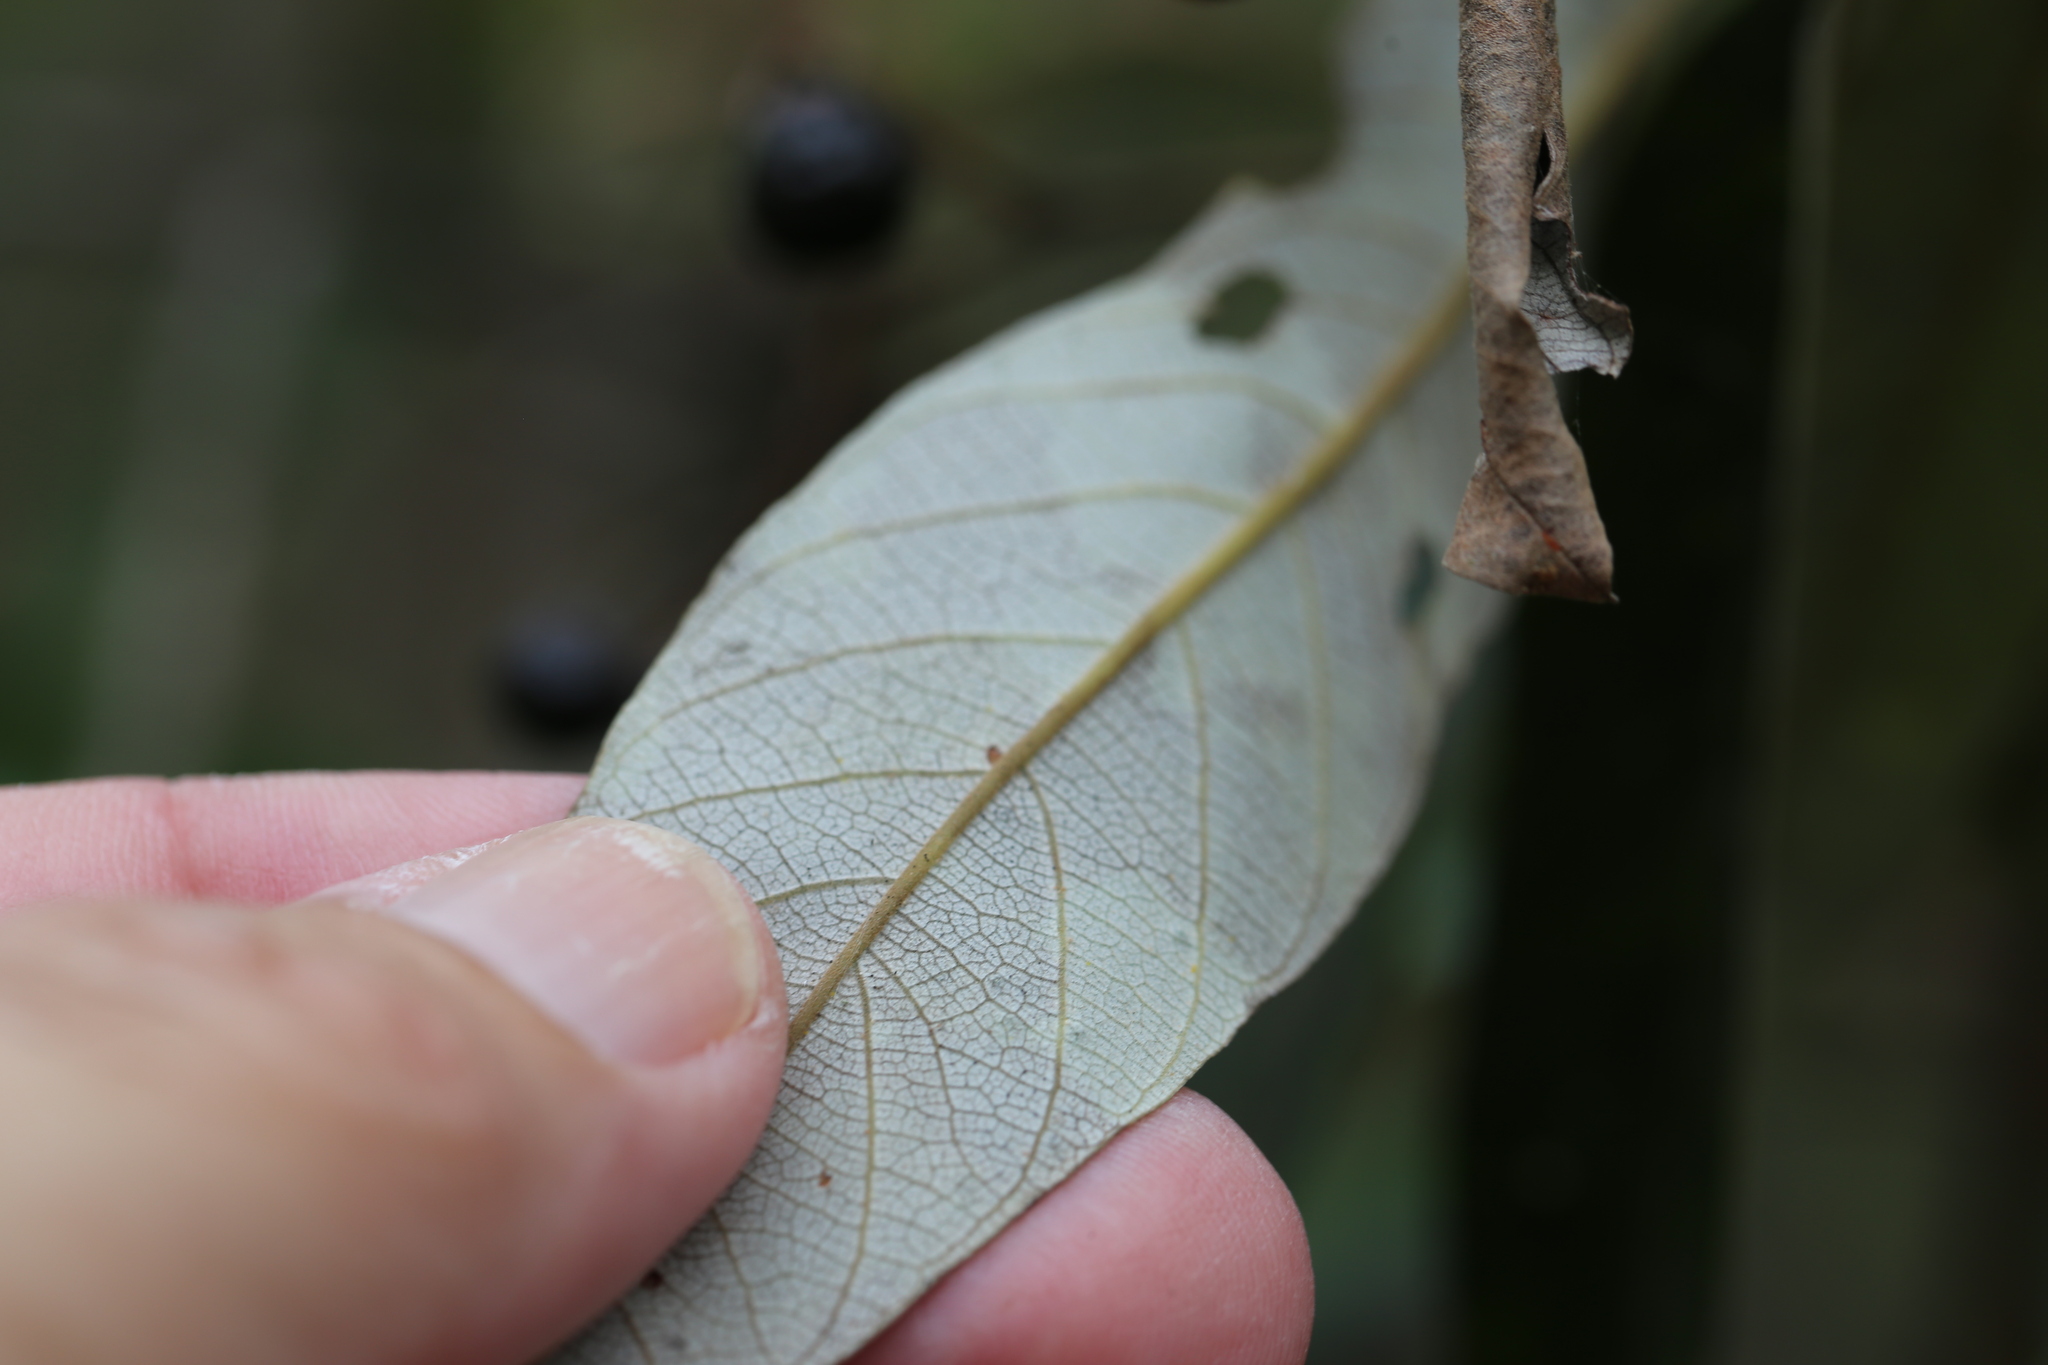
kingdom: Plantae
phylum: Tracheophyta
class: Magnoliopsida
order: Rosales
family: Rhamnaceae
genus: Alphitonia
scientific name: Alphitonia excelsa
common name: Red ash
